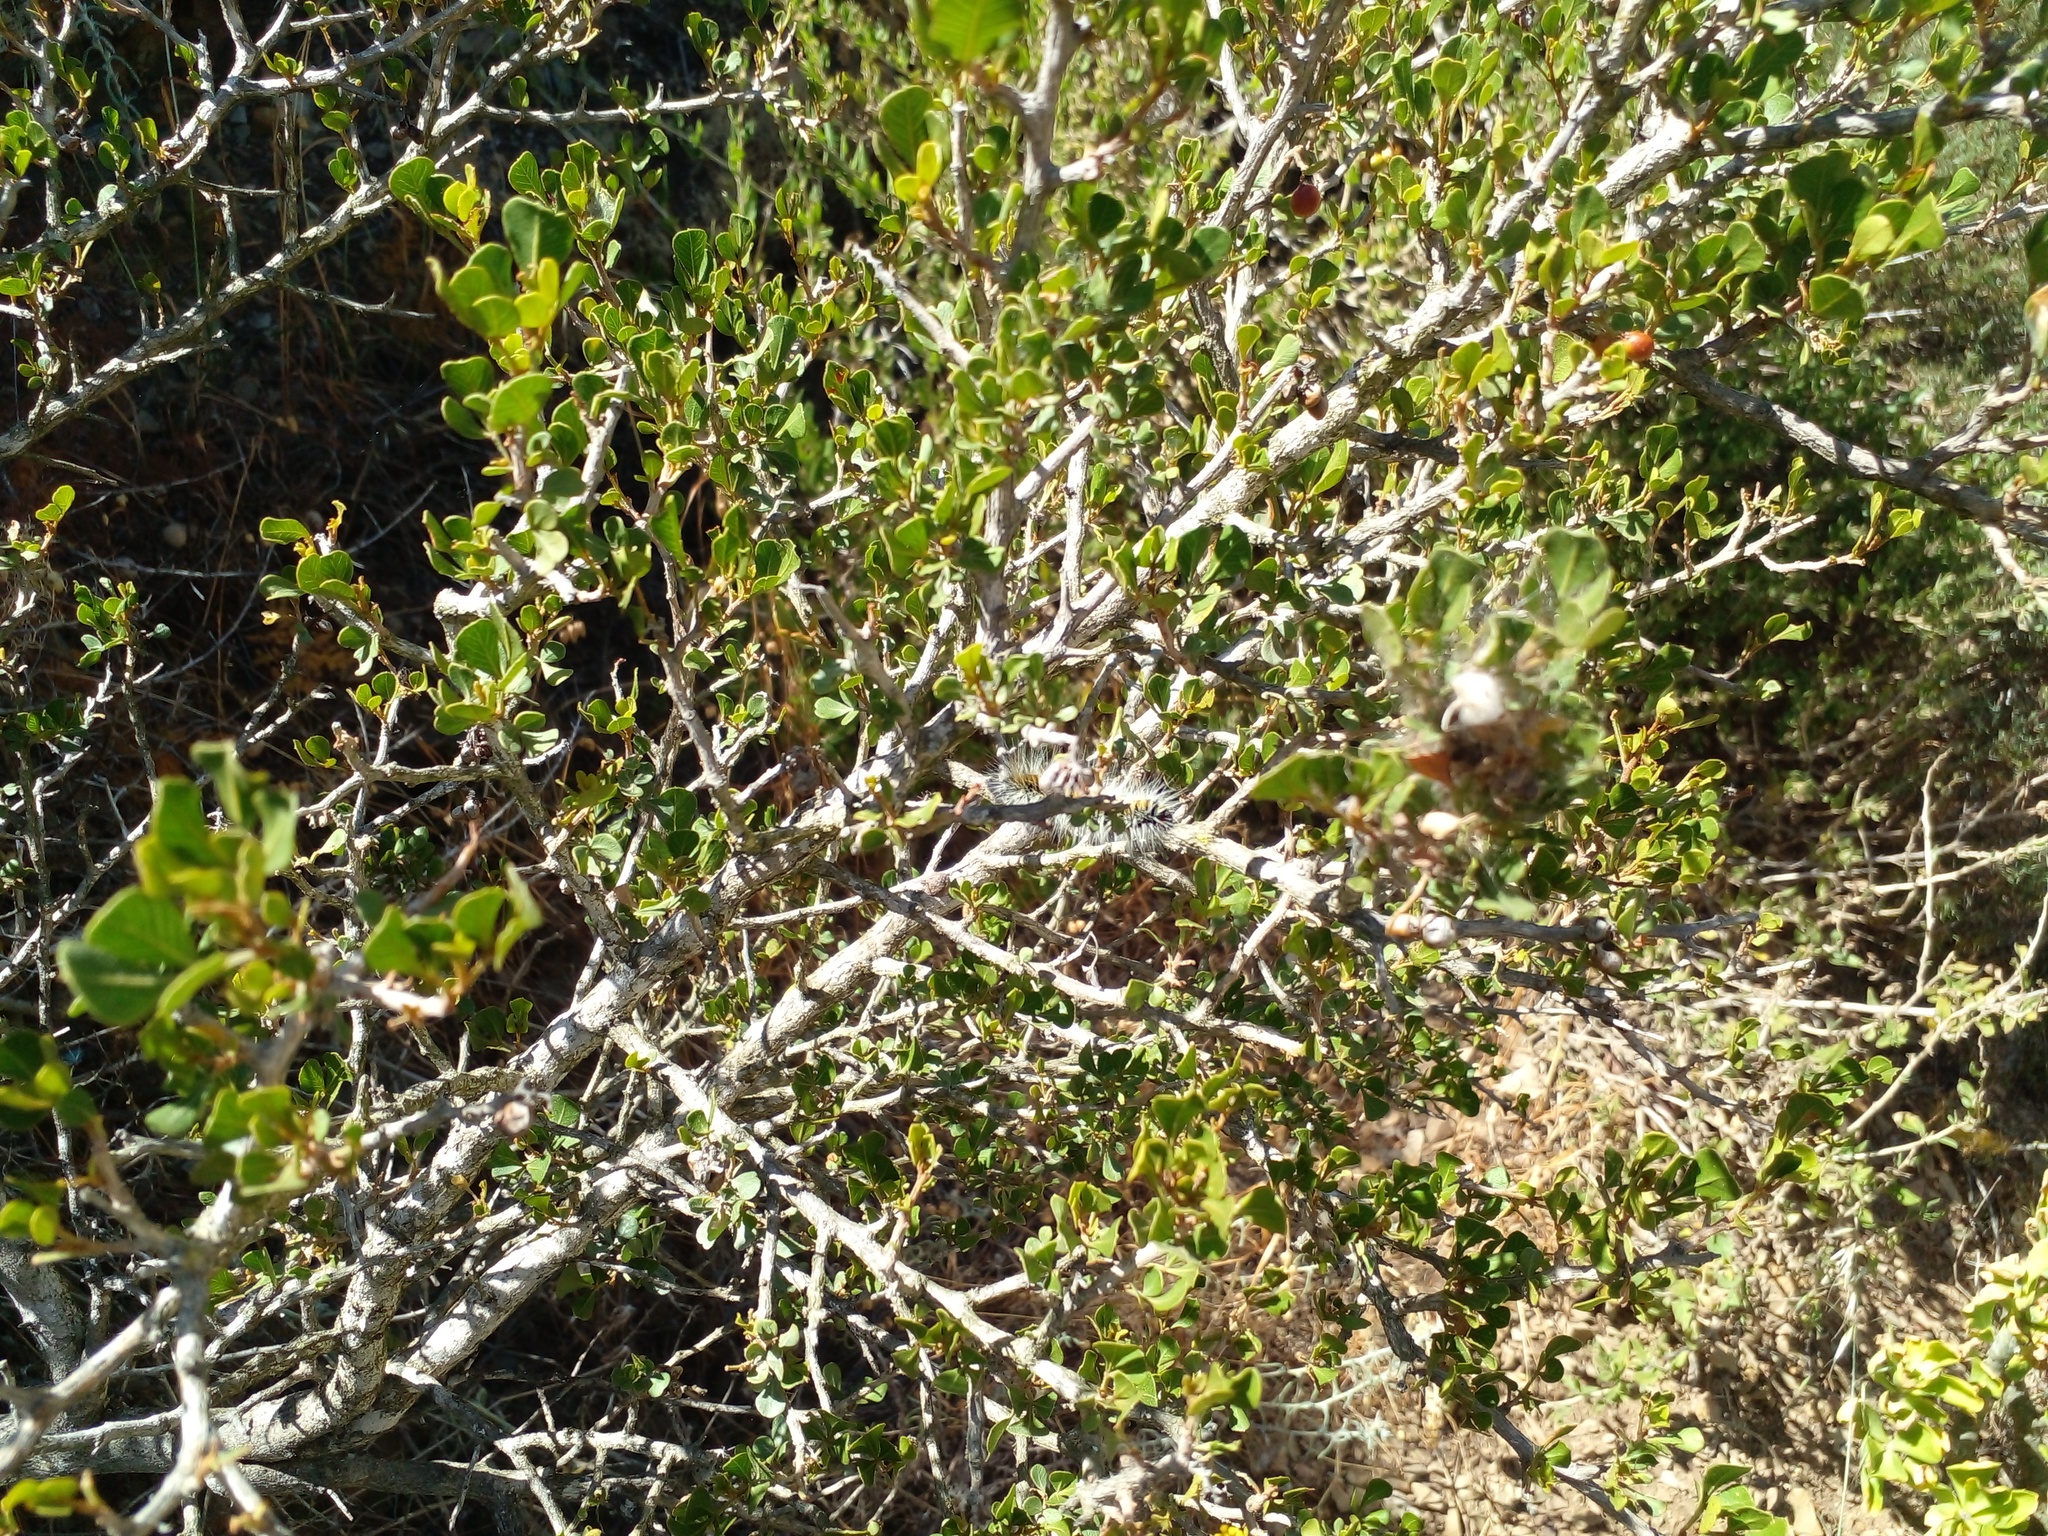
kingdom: Plantae
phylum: Tracheophyta
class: Magnoliopsida
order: Sapindales
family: Anacardiaceae
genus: Searsia
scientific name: Searsia glauca
